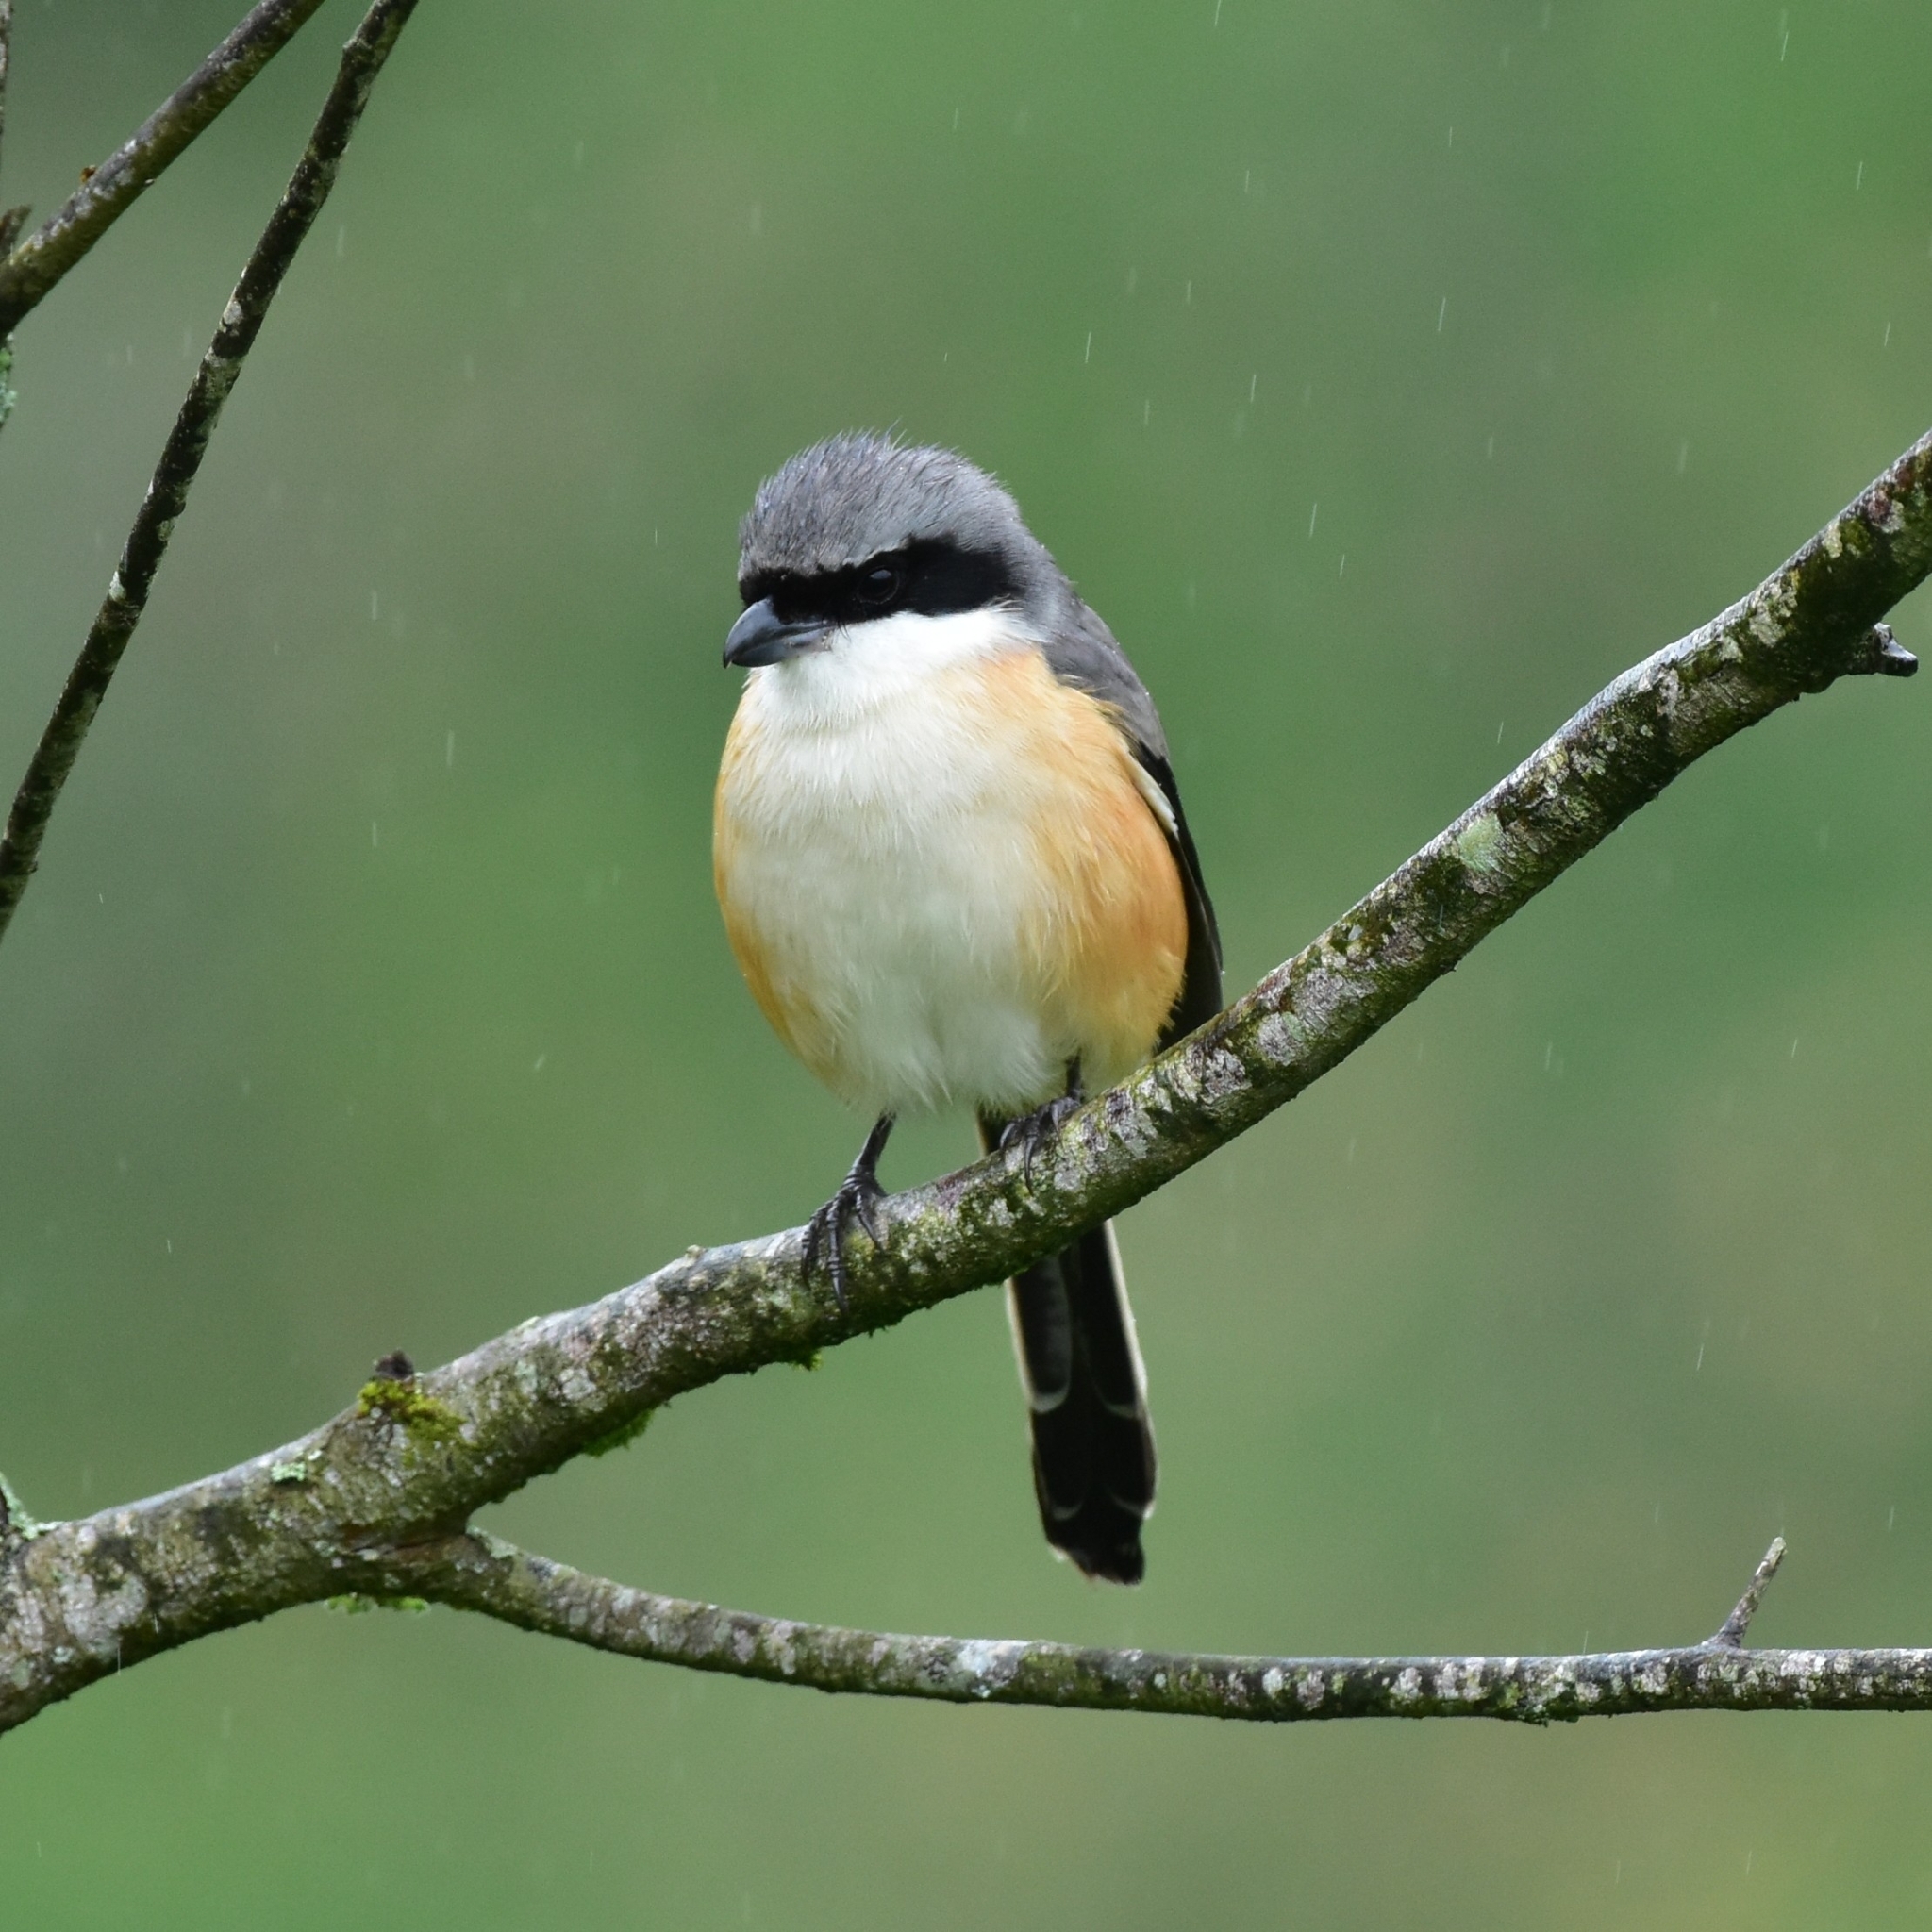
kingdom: Animalia
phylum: Chordata
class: Aves
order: Passeriformes
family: Laniidae
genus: Lanius
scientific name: Lanius schach
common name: Long-tailed shrike
